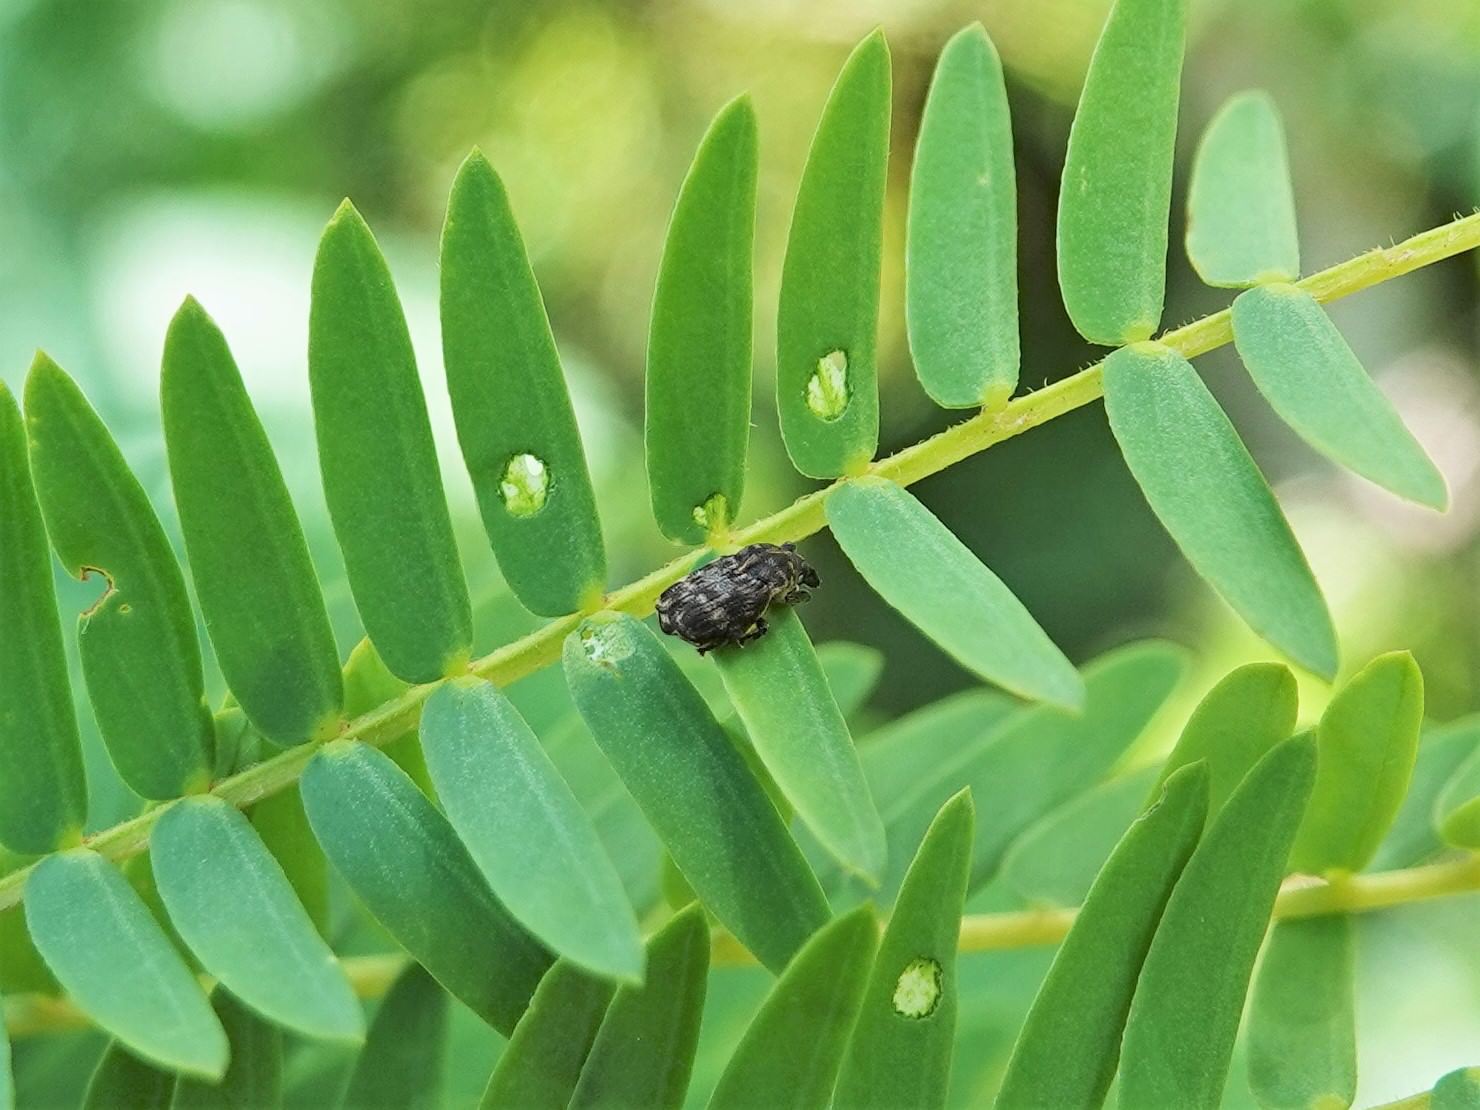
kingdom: Animalia
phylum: Arthropoda
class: Insecta
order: Coleoptera
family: Curculionidae
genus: Neolaemosaccus
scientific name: Neolaemosaccus narinus
